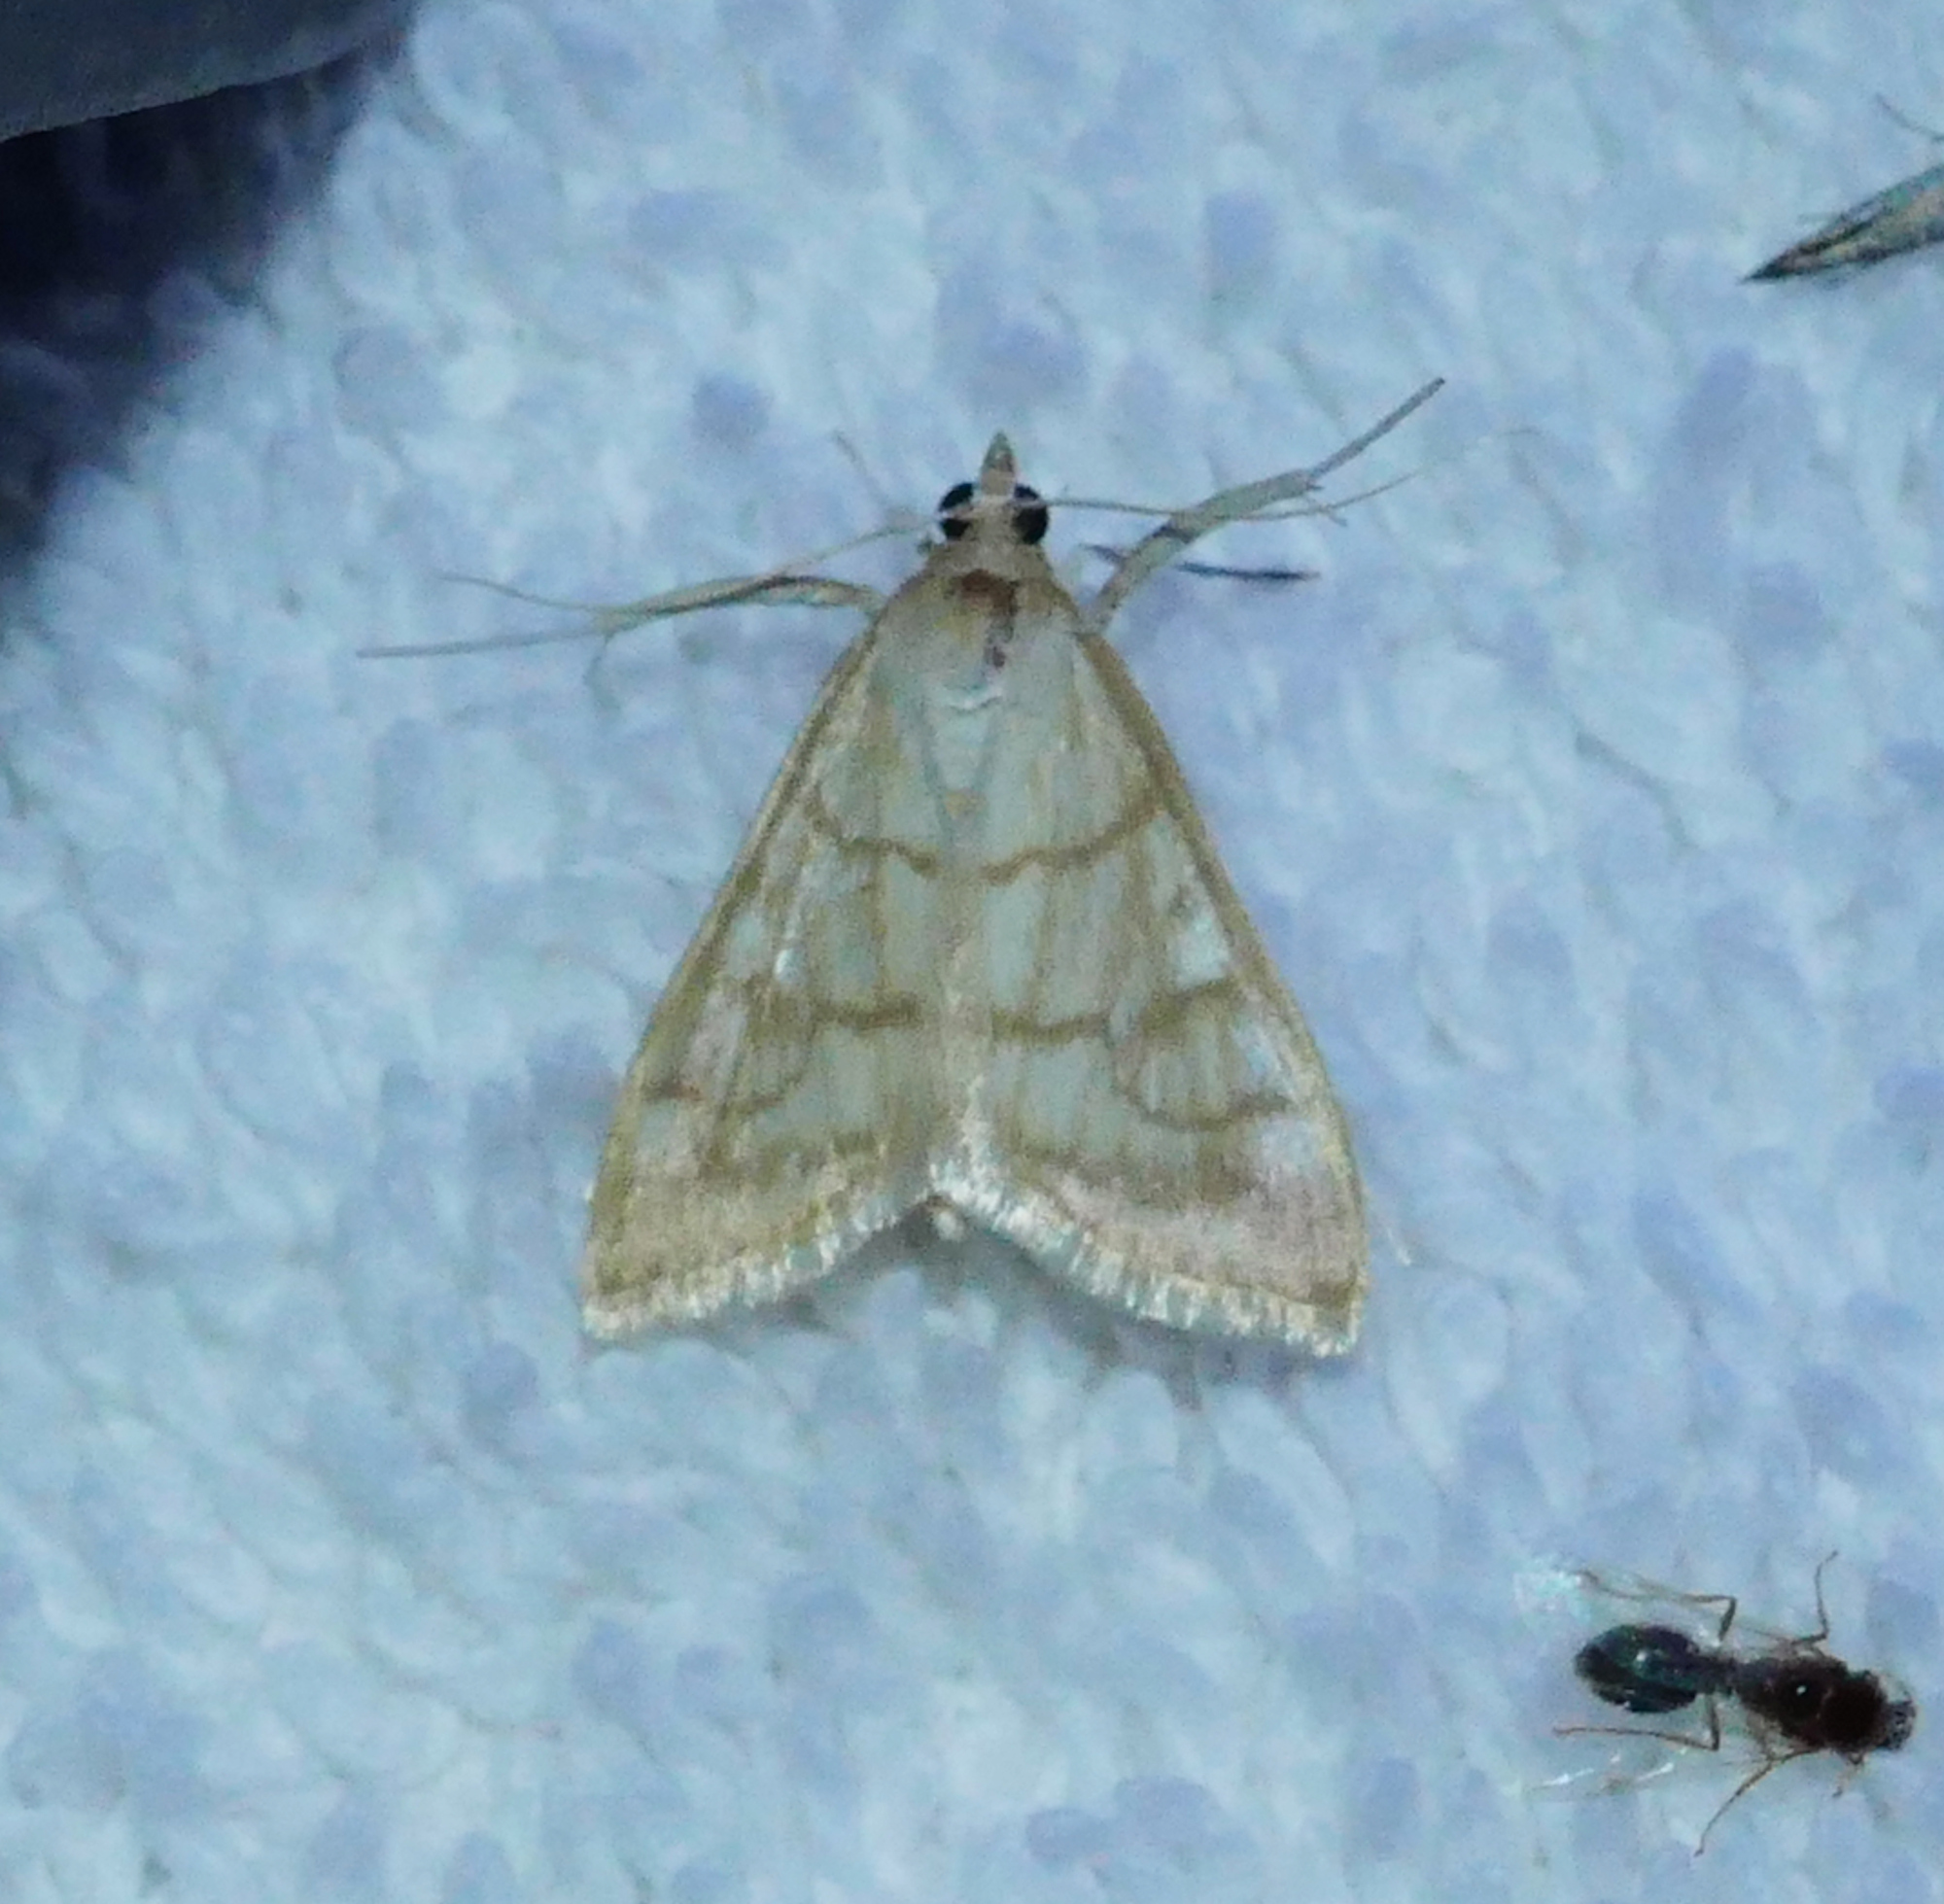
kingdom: Animalia
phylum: Arthropoda
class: Insecta
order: Lepidoptera
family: Crambidae
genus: Hahncappsia
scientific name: Hahncappsia mancalis
